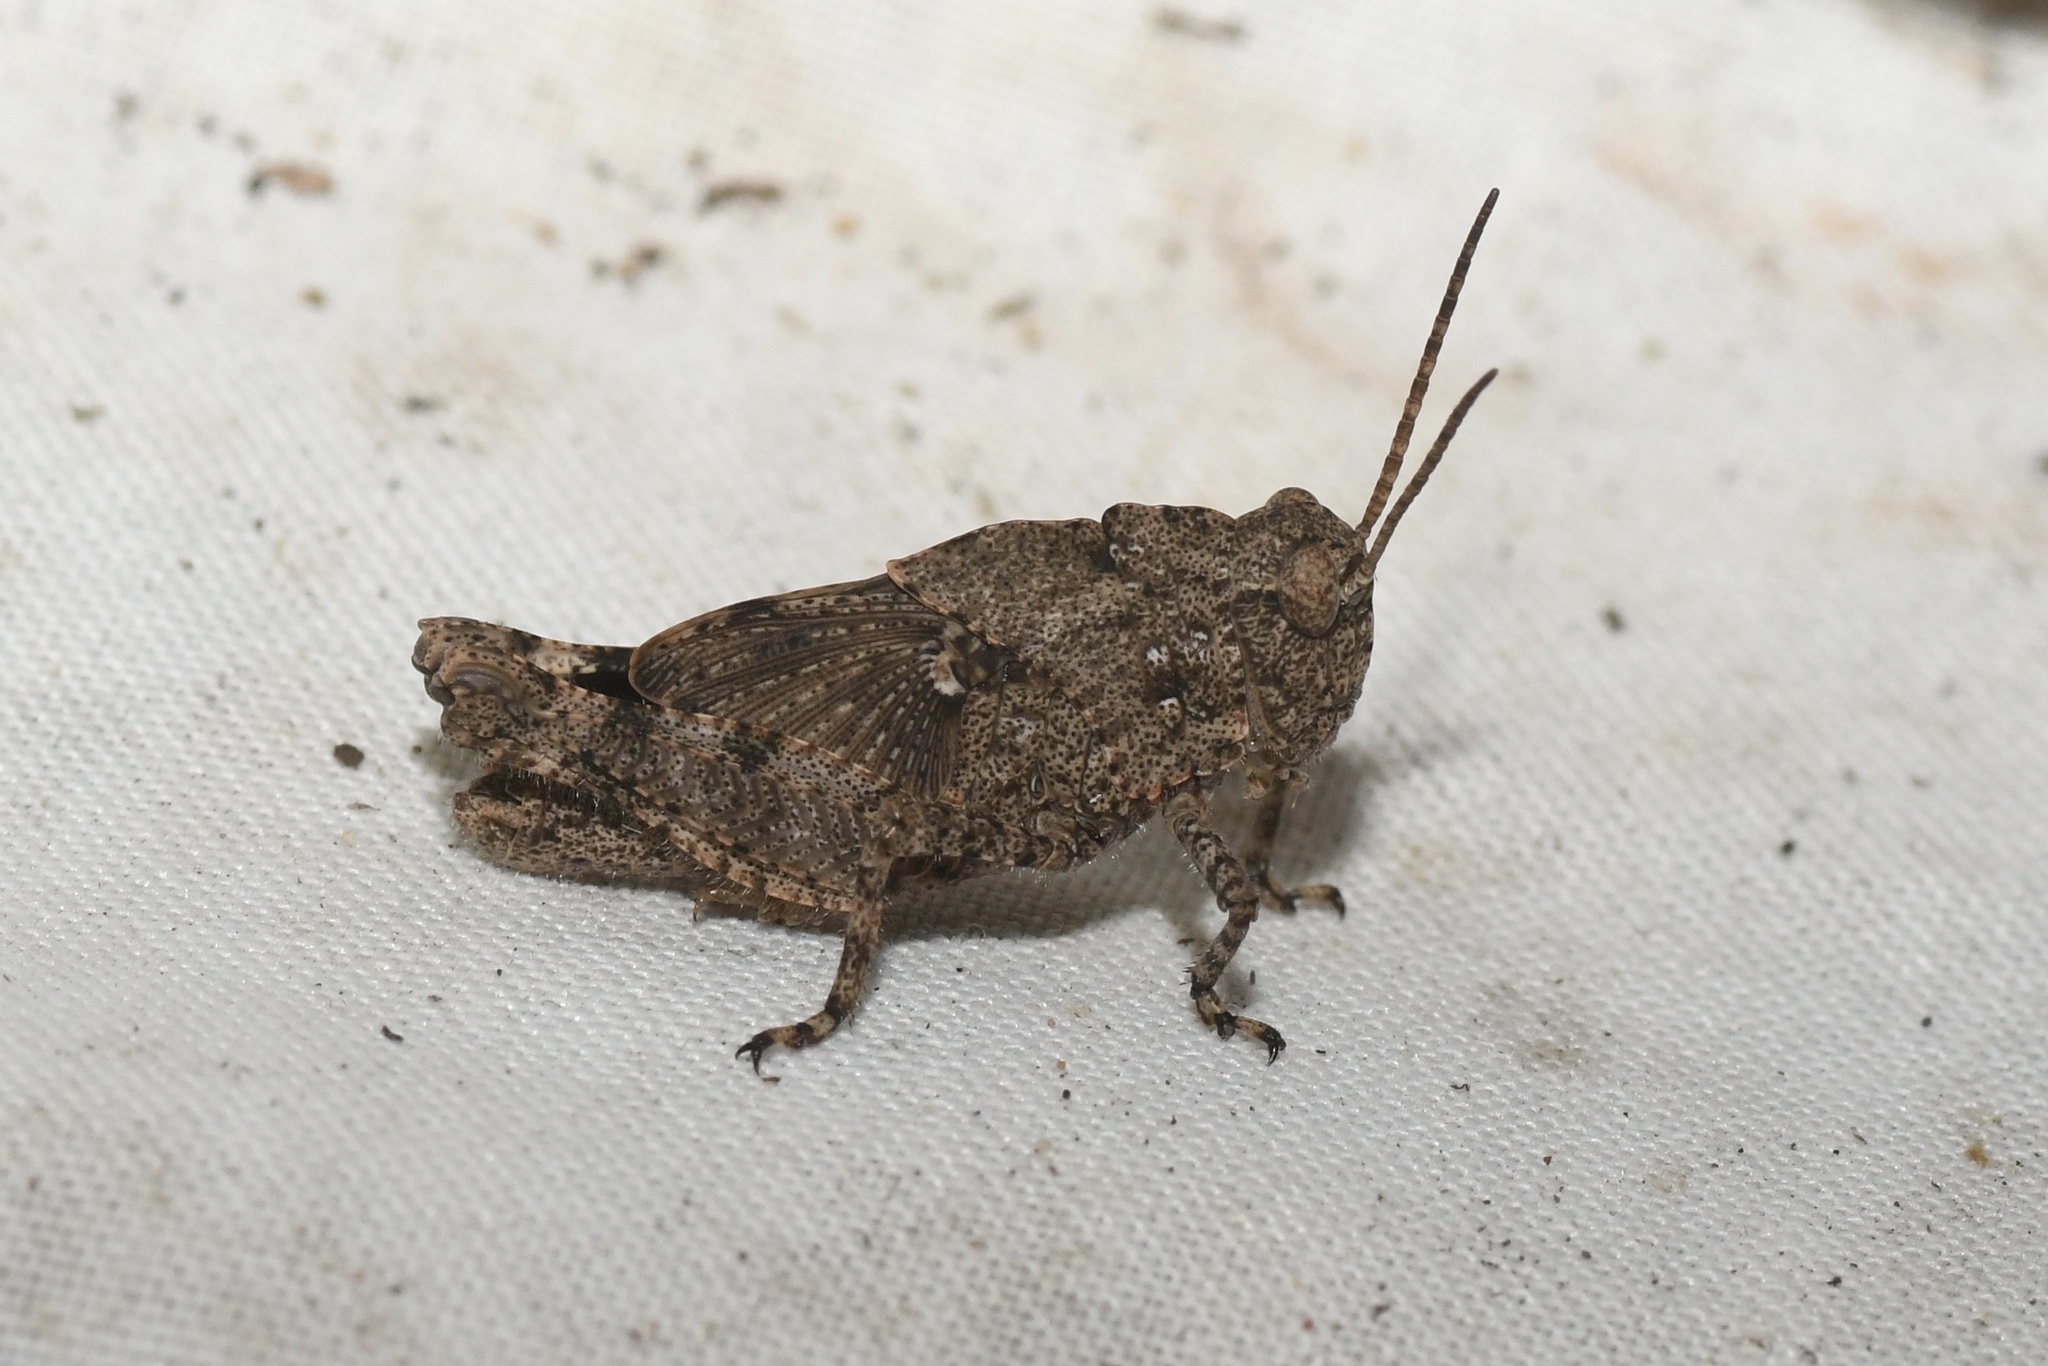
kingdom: Animalia
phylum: Arthropoda
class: Insecta
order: Orthoptera
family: Acrididae
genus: Dissosteira
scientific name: Dissosteira carolina
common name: Carolina grasshopper
